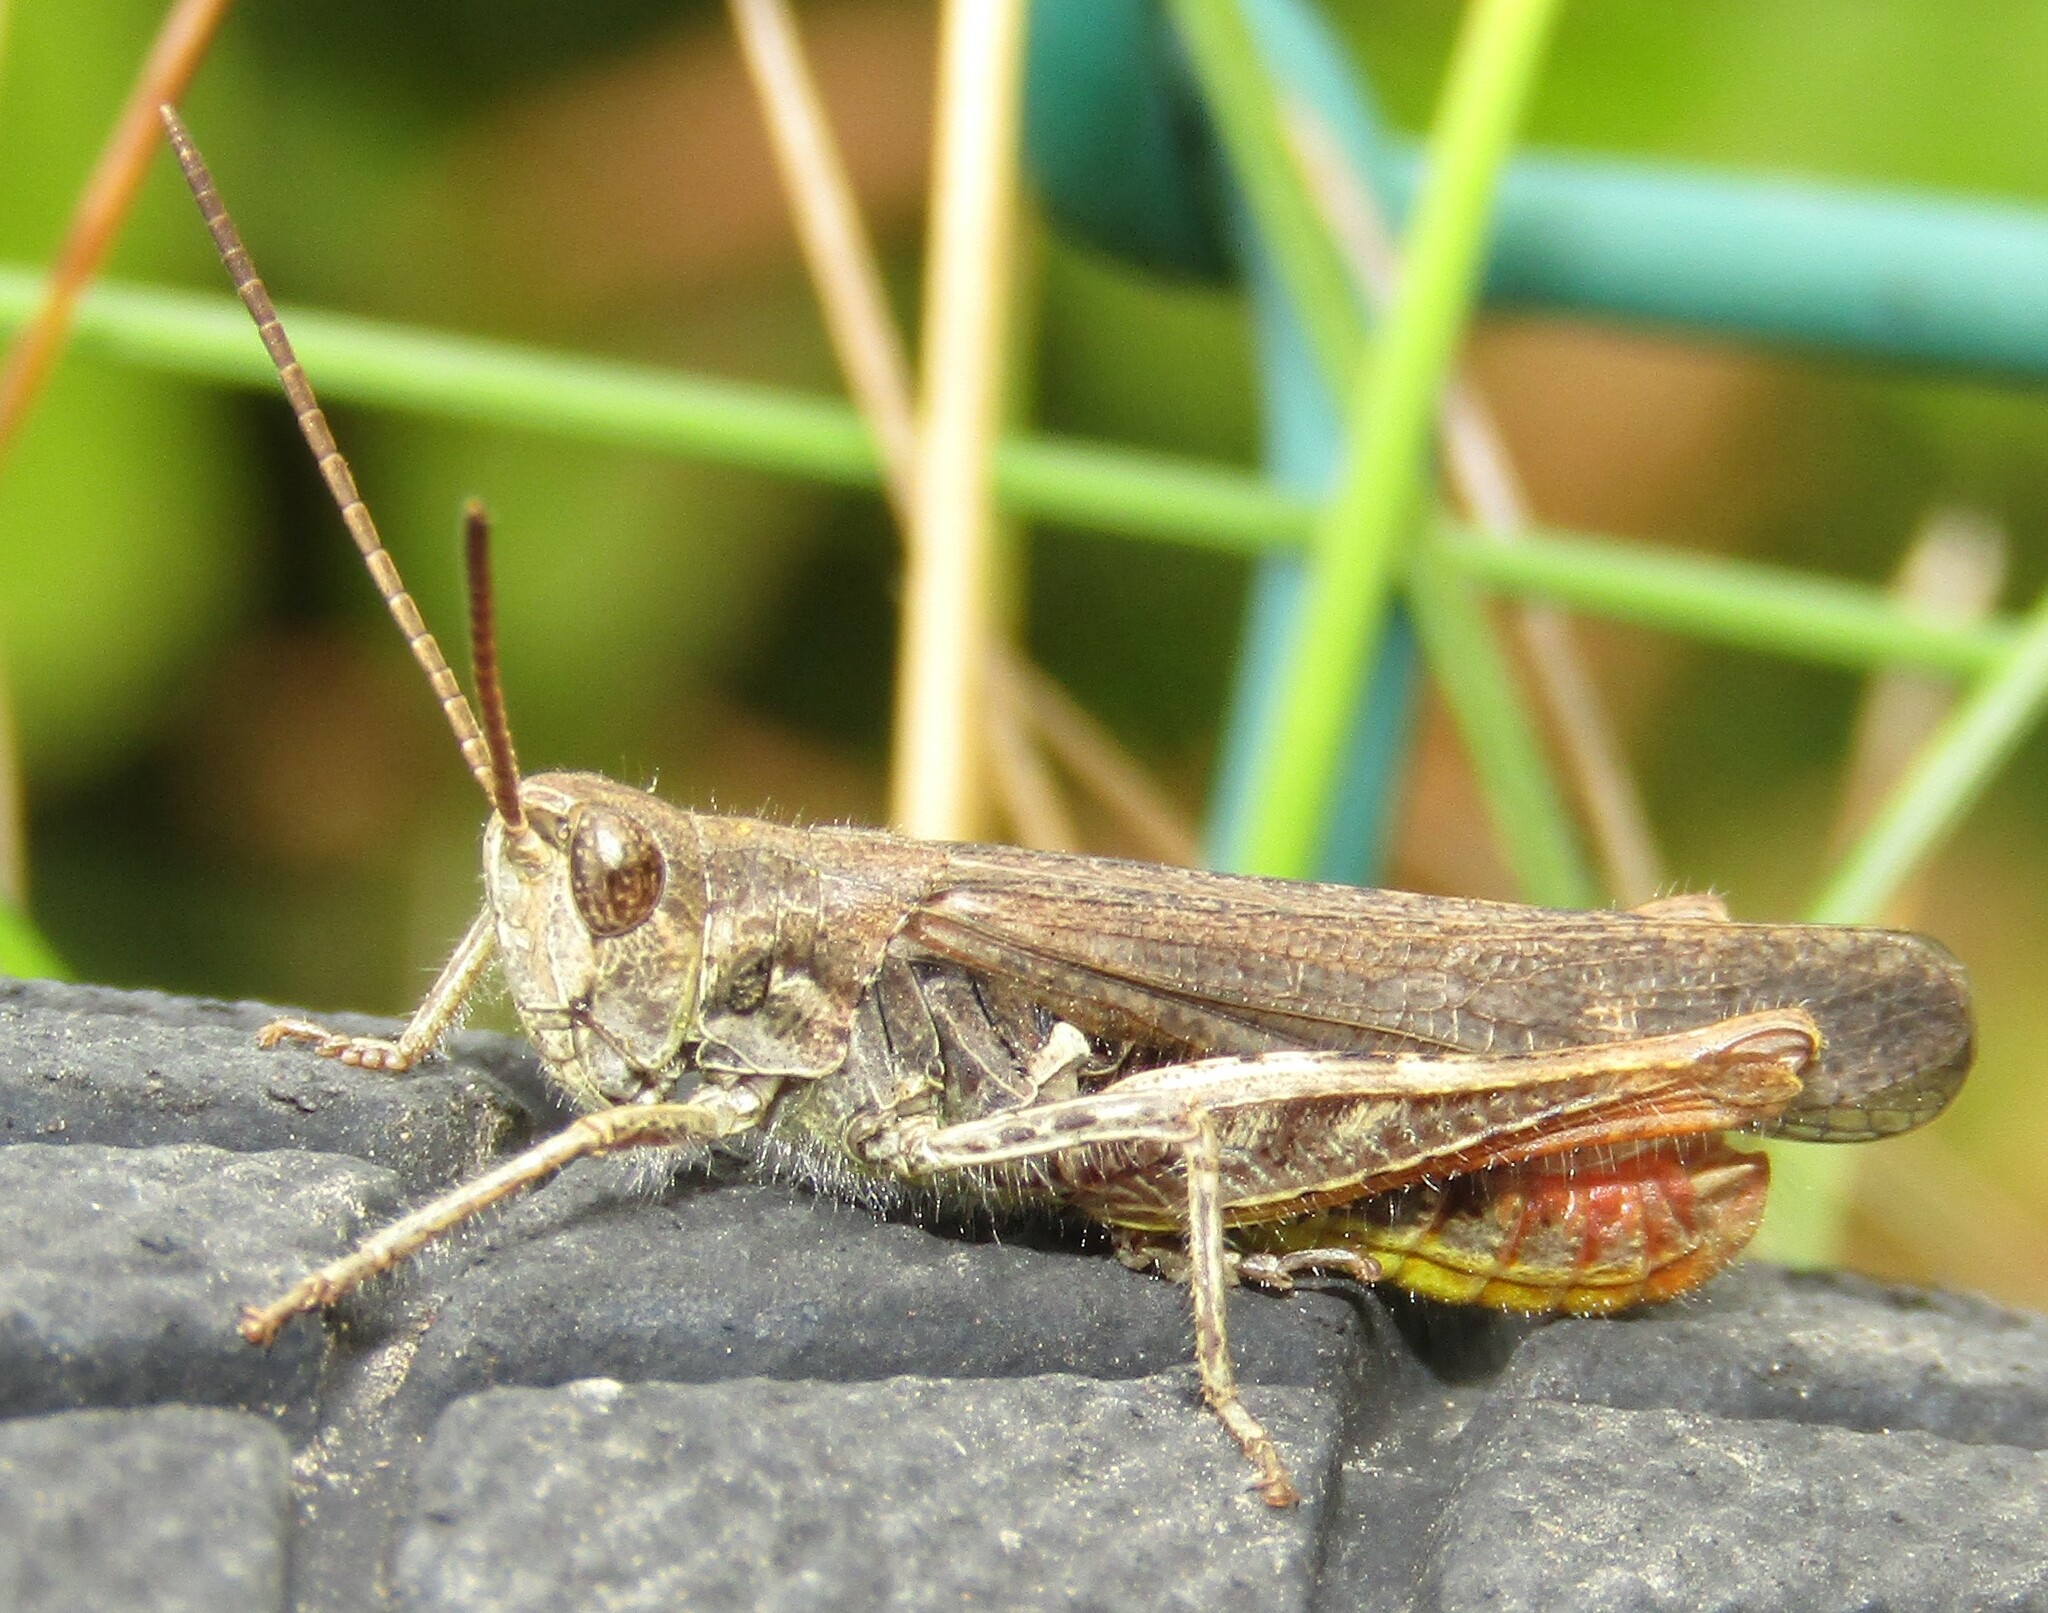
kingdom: Animalia
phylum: Arthropoda
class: Insecta
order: Orthoptera
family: Acrididae
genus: Chorthippus
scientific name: Chorthippus biguttulus
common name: Bow-winged grasshopper
